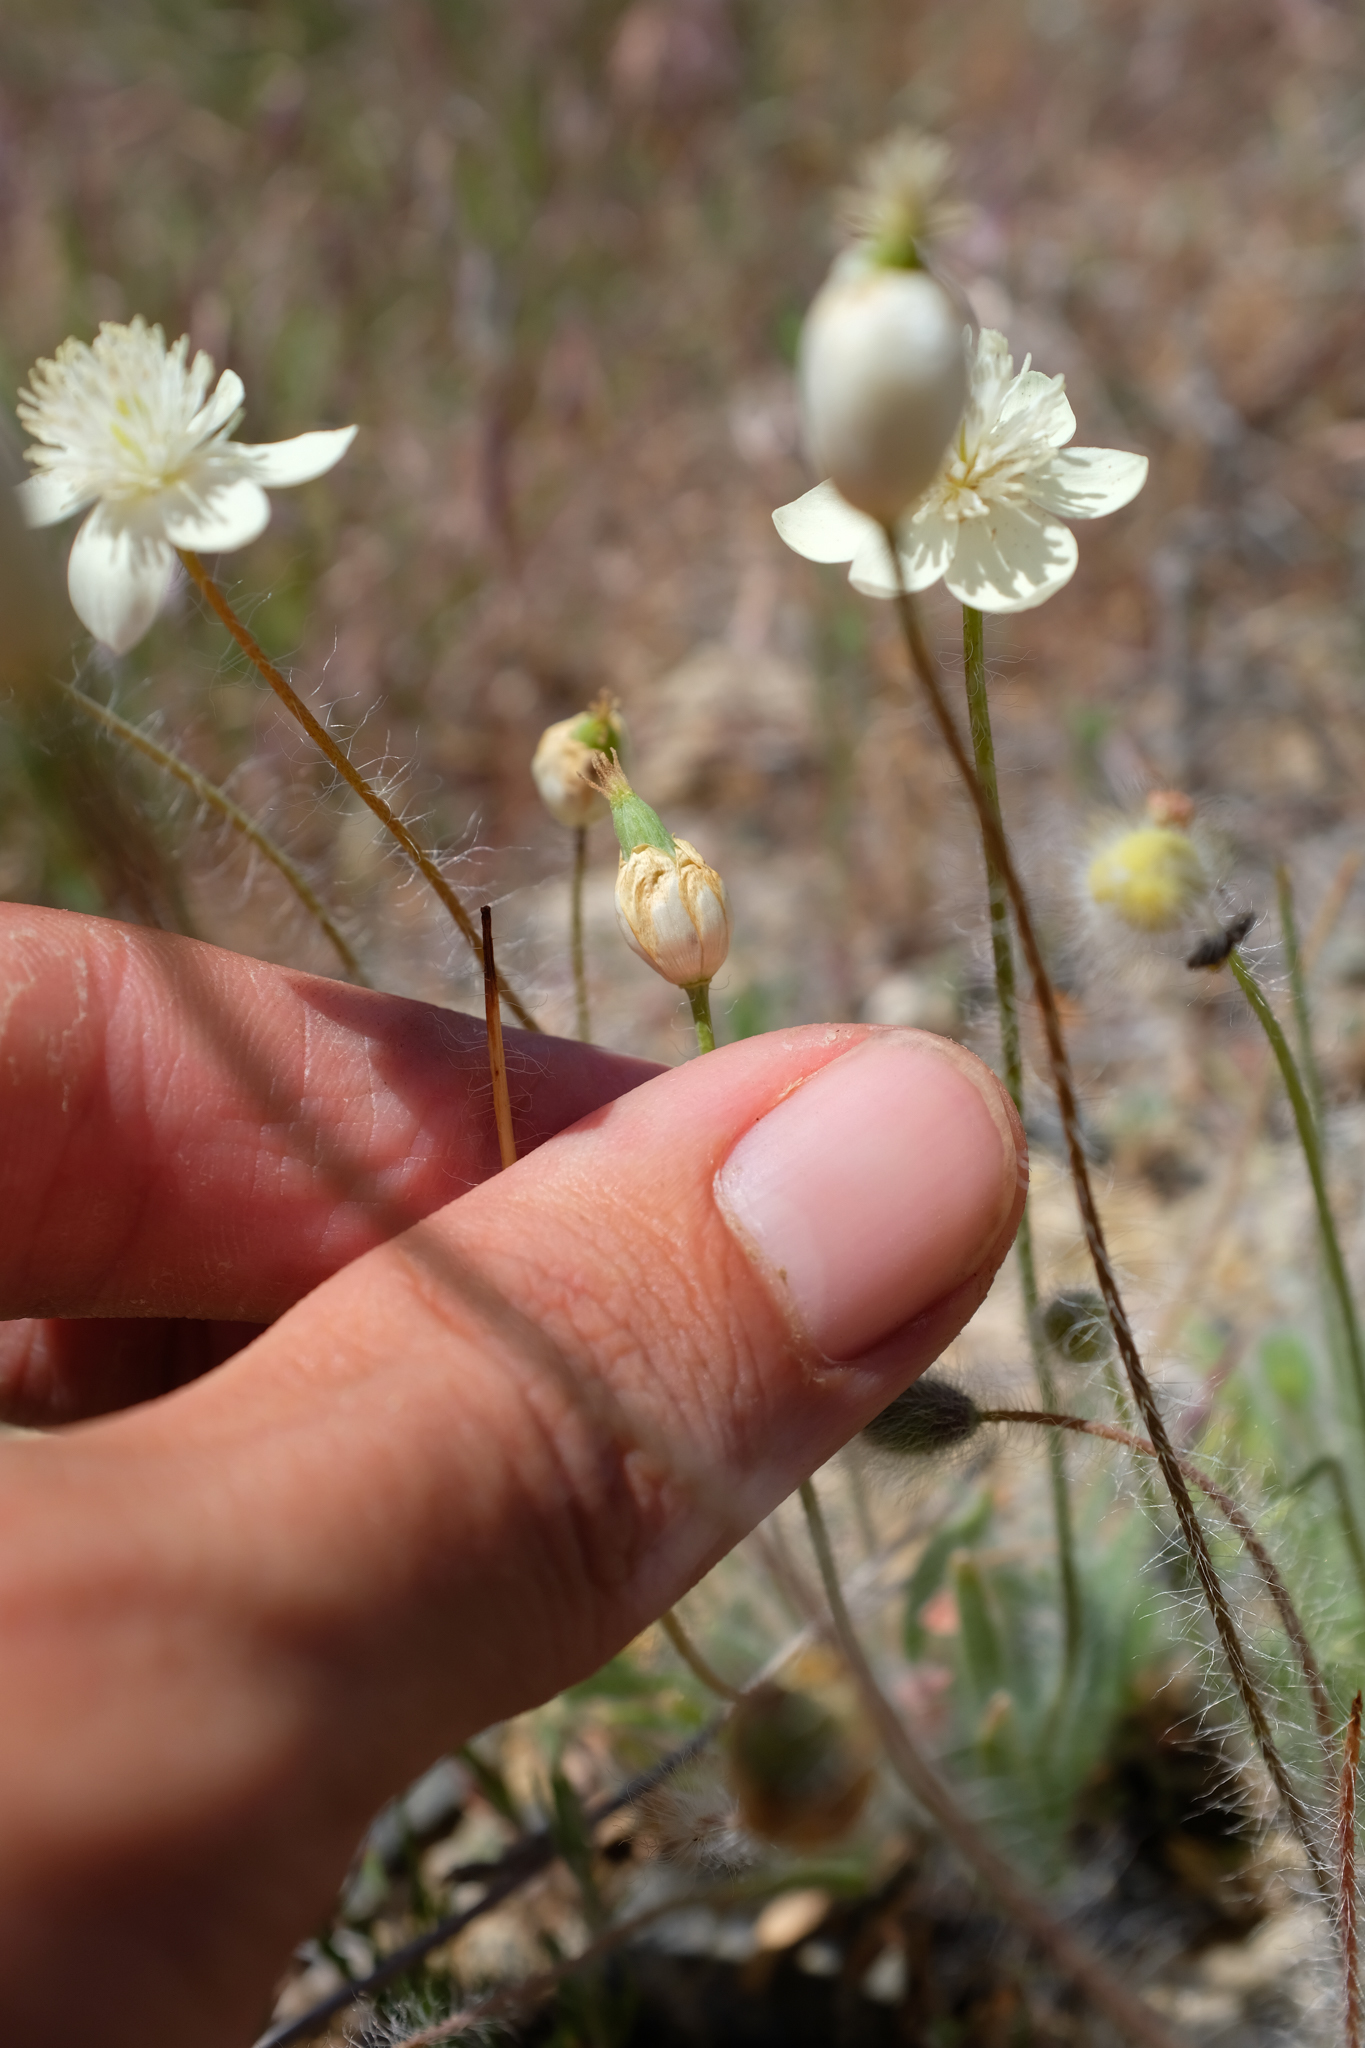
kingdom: Plantae
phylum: Tracheophyta
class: Magnoliopsida
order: Ranunculales
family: Papaveraceae
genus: Platystemon
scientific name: Platystemon californicus
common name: Cream-cups
